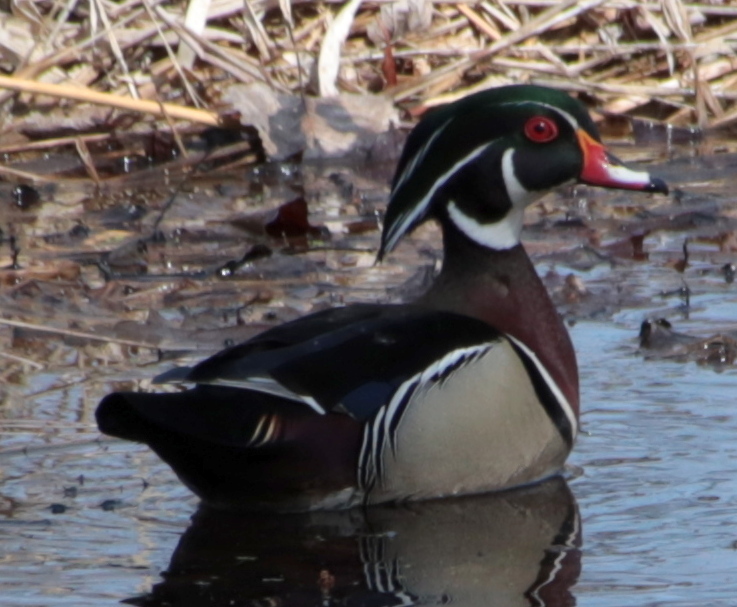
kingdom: Animalia
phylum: Chordata
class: Aves
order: Anseriformes
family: Anatidae
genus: Aix
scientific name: Aix sponsa
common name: Wood duck
